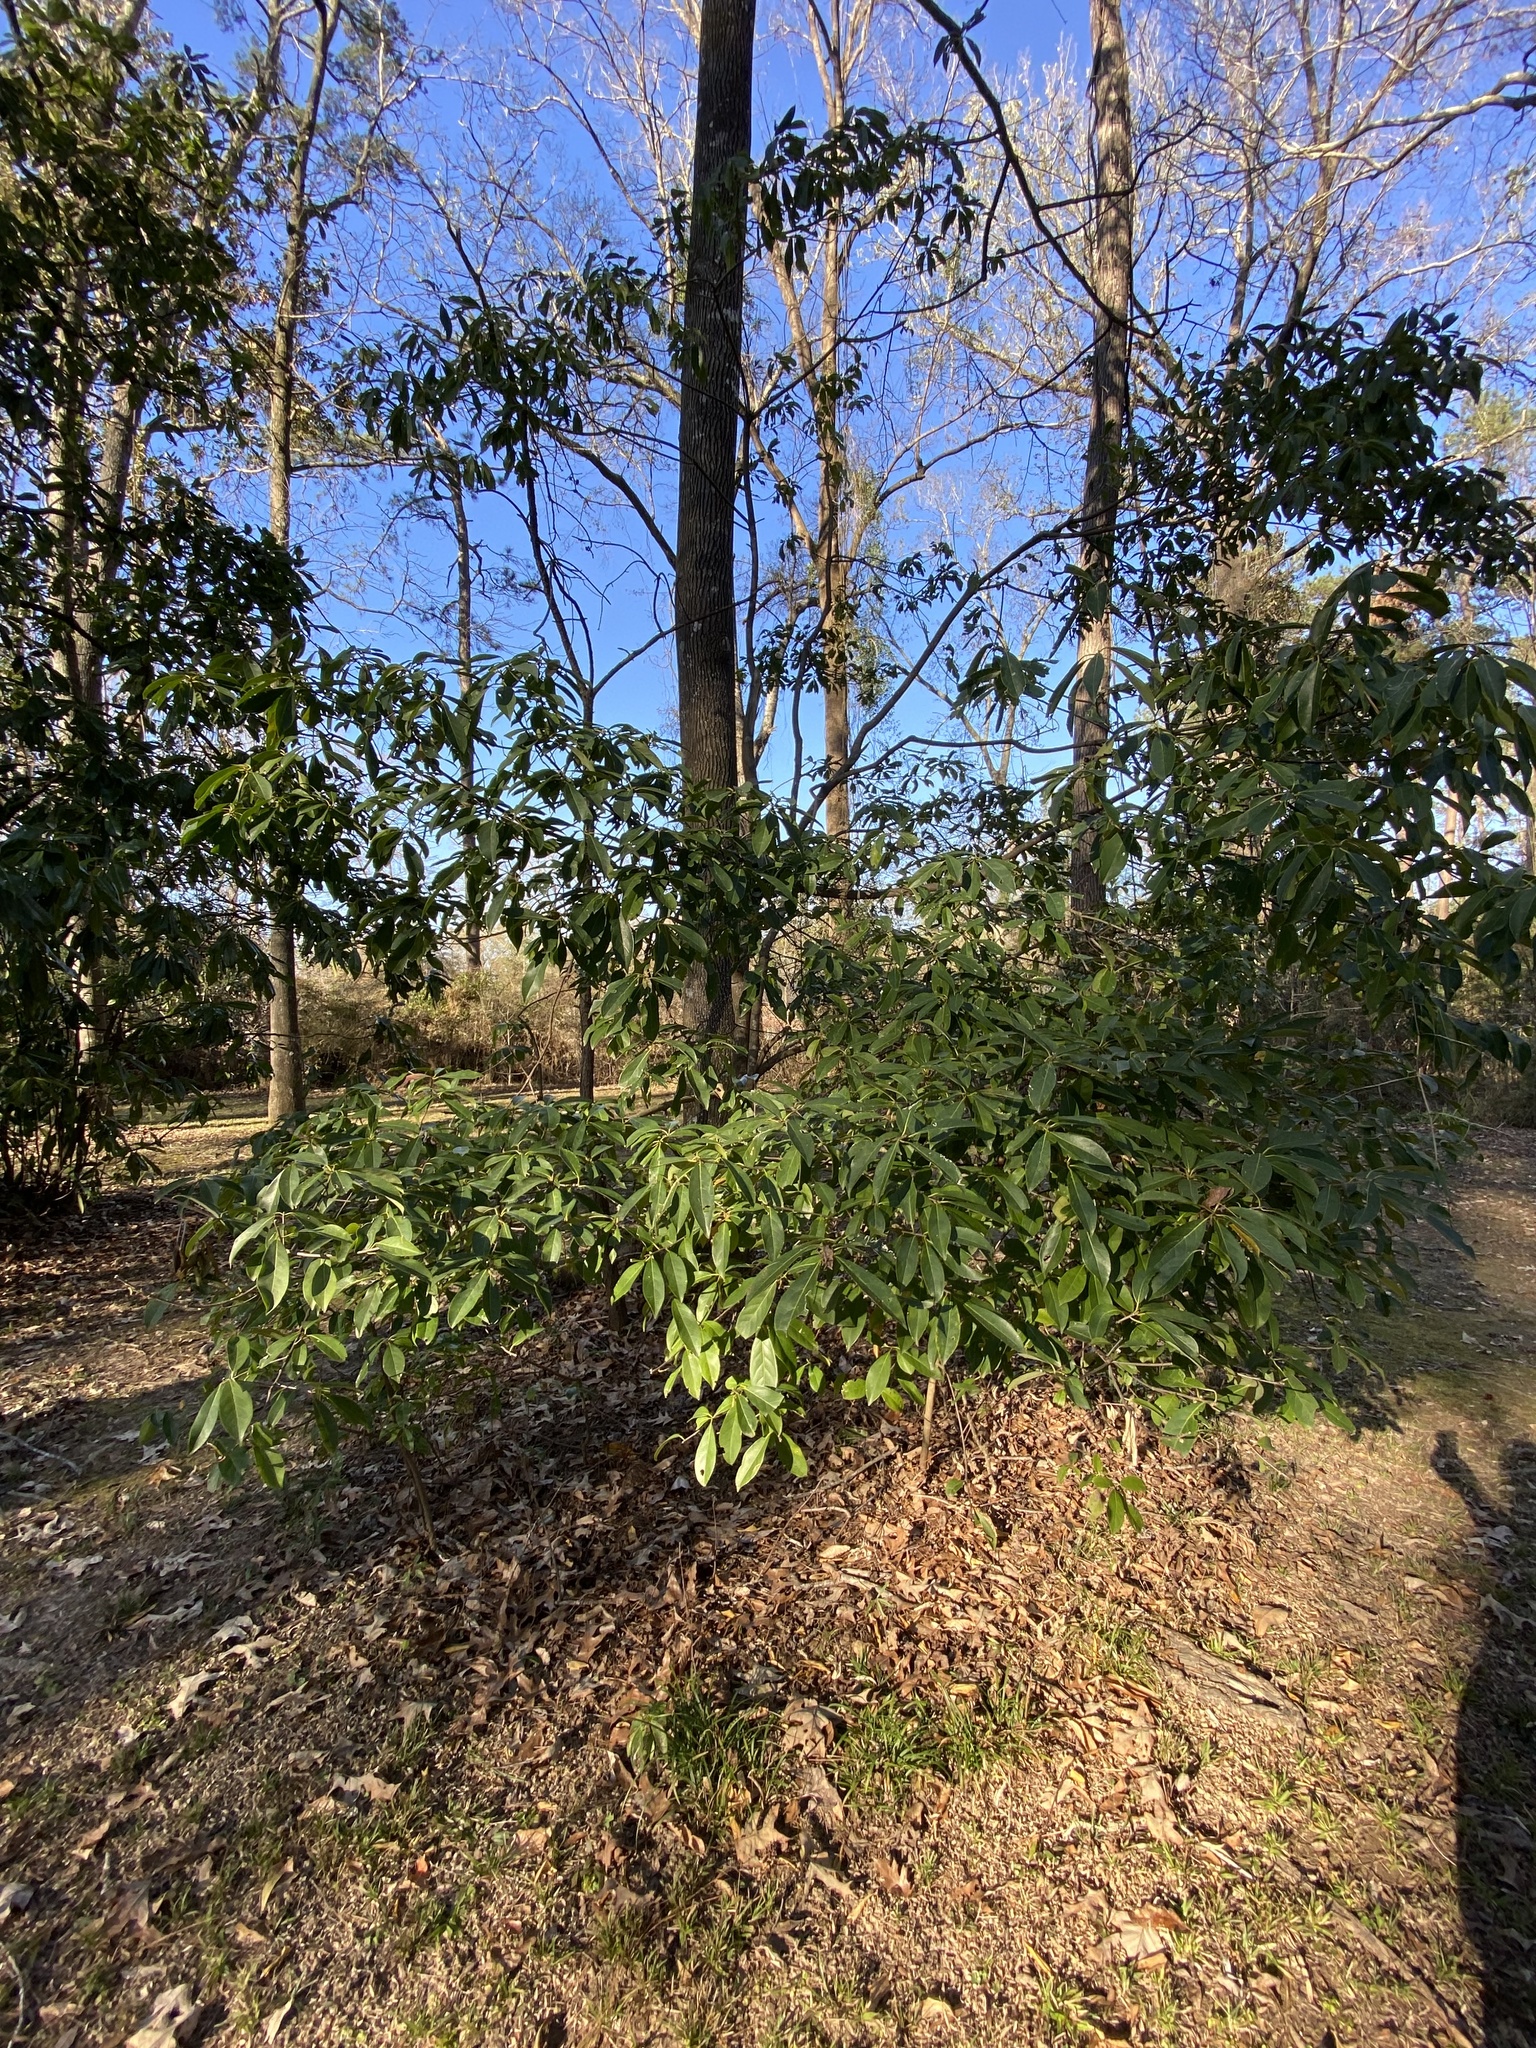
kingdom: Plantae
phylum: Tracheophyta
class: Magnoliopsida
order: Ericales
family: Symplocaceae
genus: Symplocos
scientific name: Symplocos tinctoria
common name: Horse-sugar
